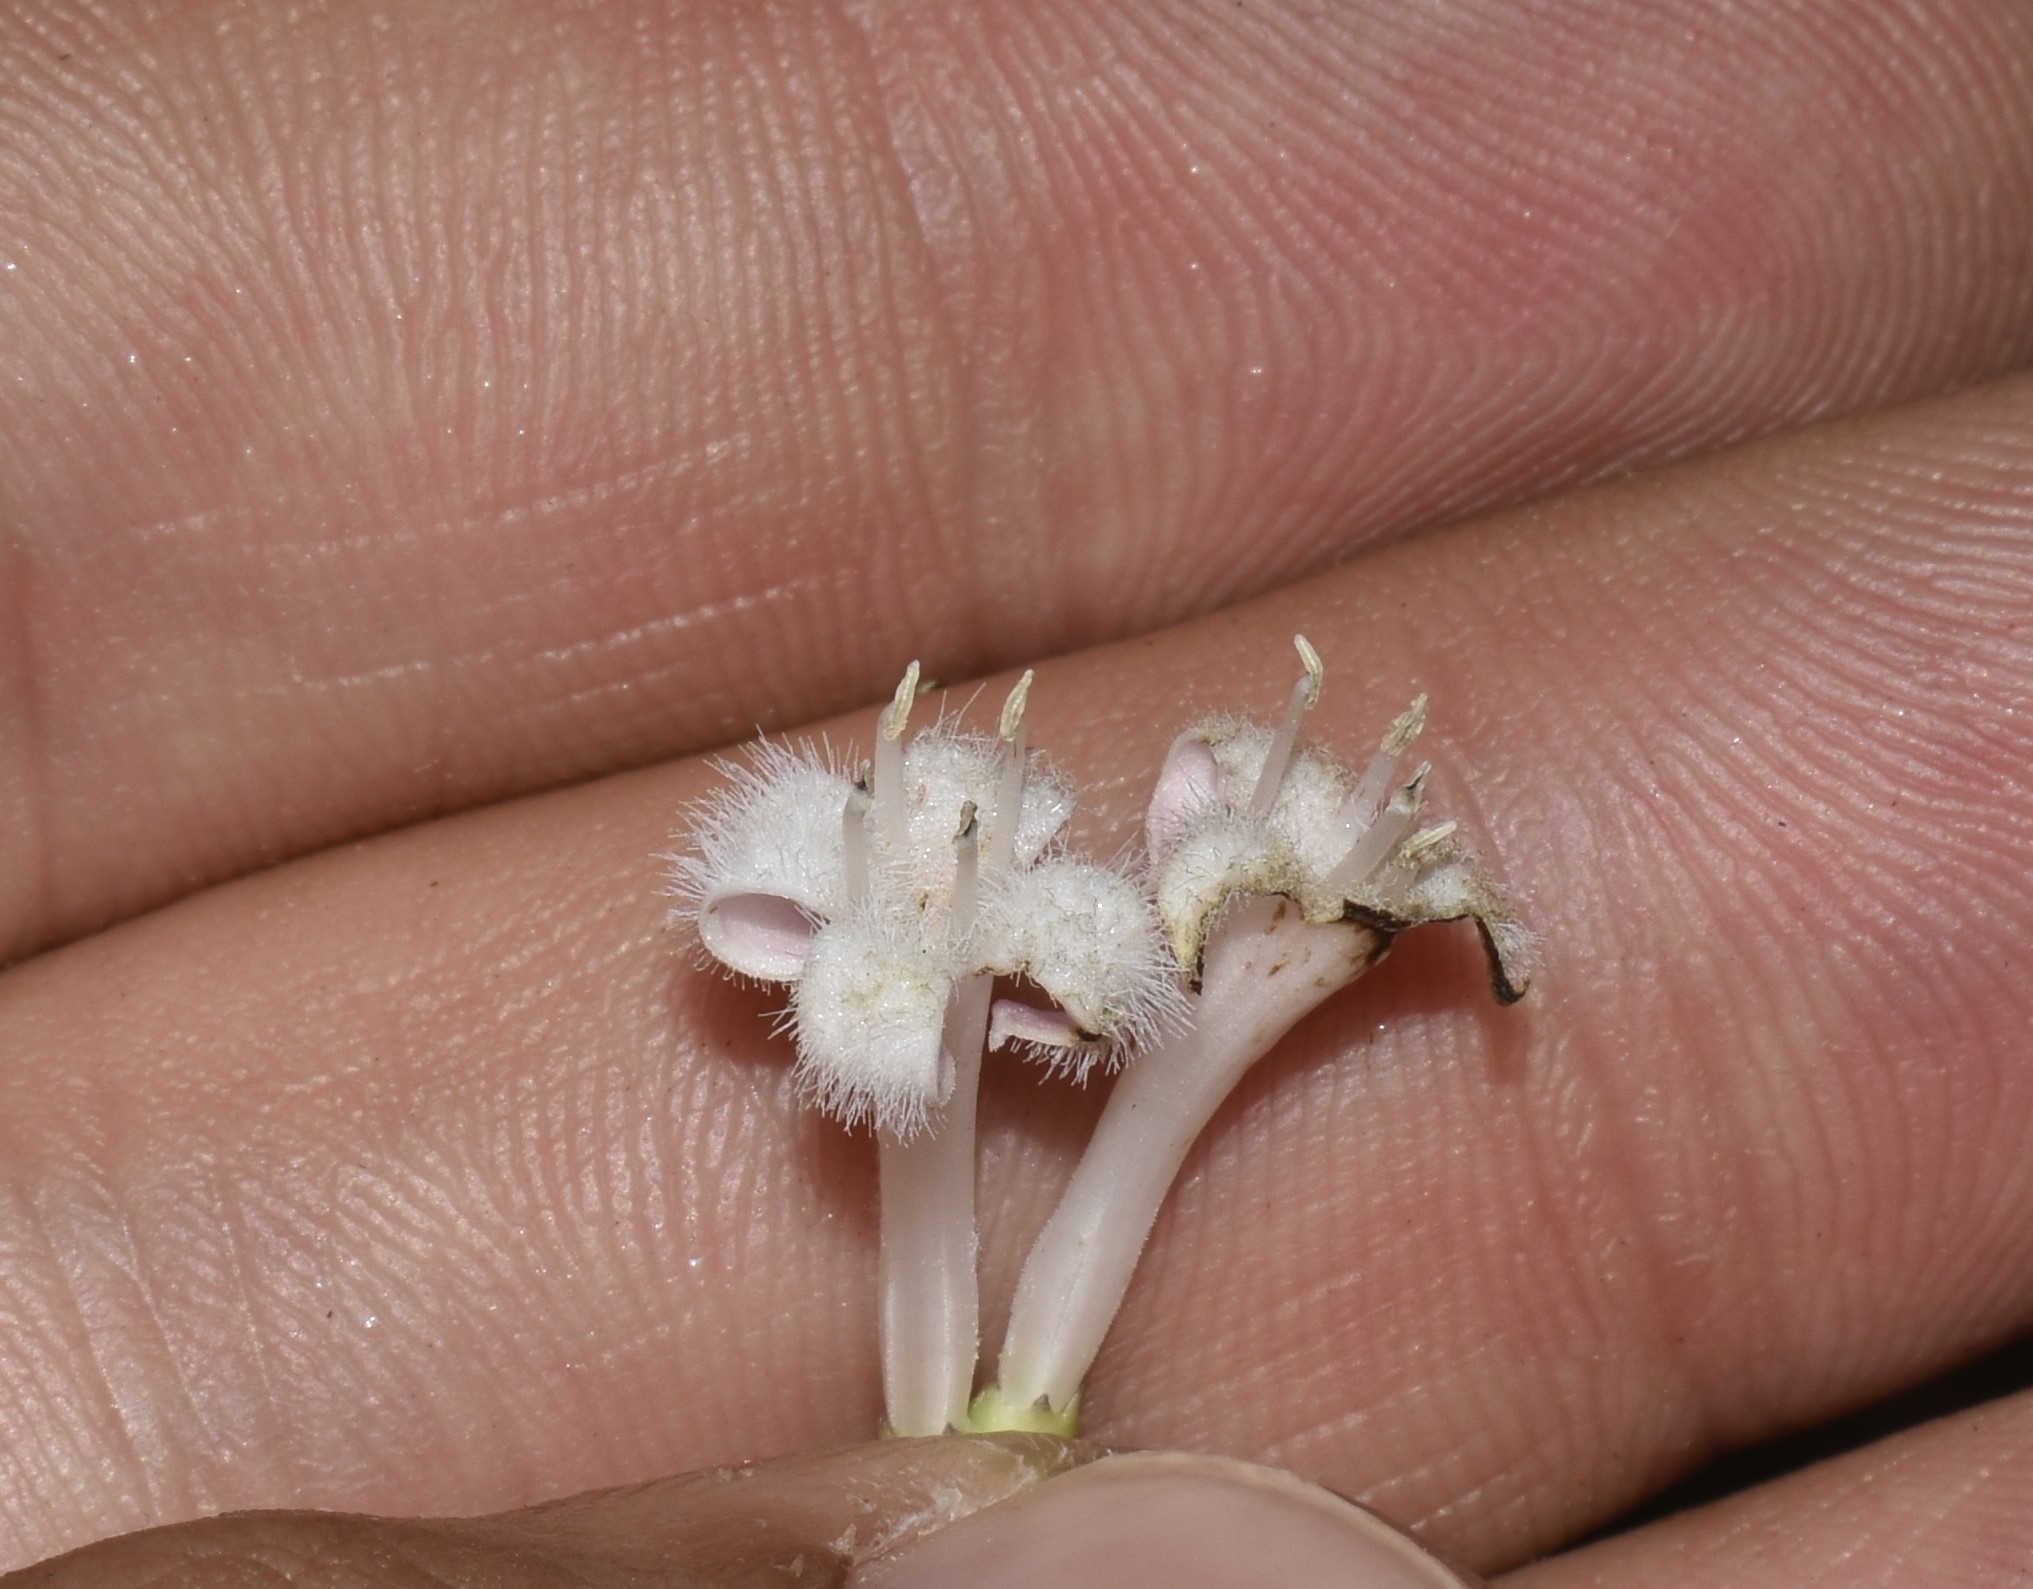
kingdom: Plantae
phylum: Tracheophyta
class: Magnoliopsida
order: Gentianales
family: Rubiaceae
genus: Mitchella
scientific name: Mitchella repens
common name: Partridge-berry
